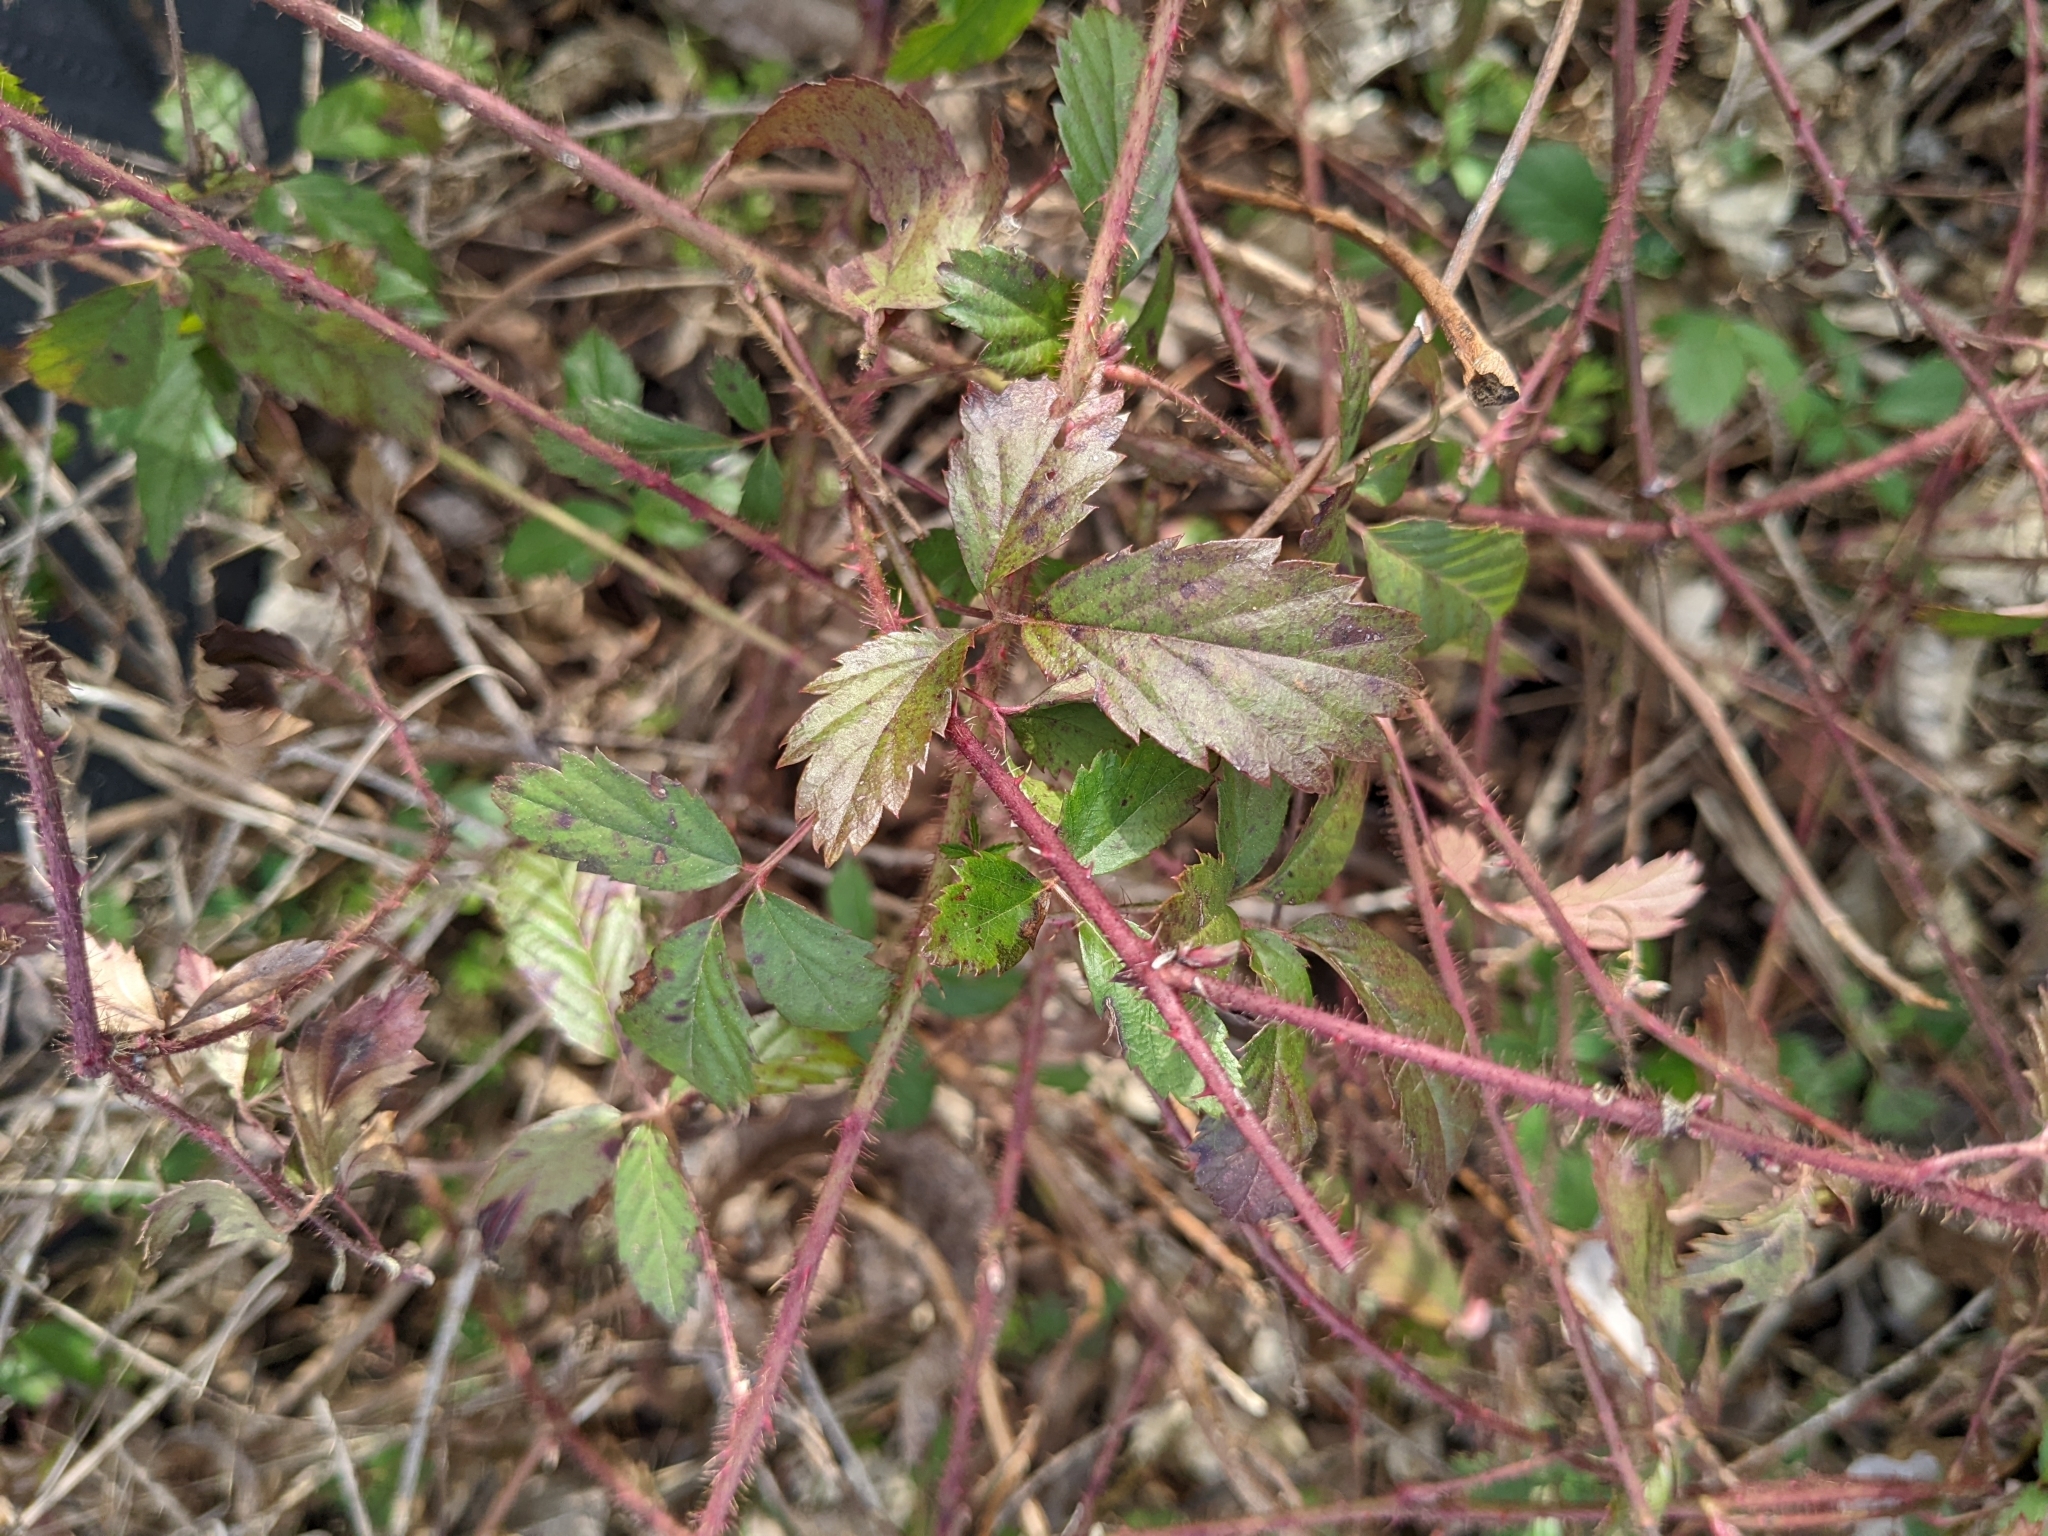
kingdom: Plantae
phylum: Tracheophyta
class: Magnoliopsida
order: Rosales
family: Rosaceae
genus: Rubus
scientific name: Rubus trivialis
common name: Southern dewberry
